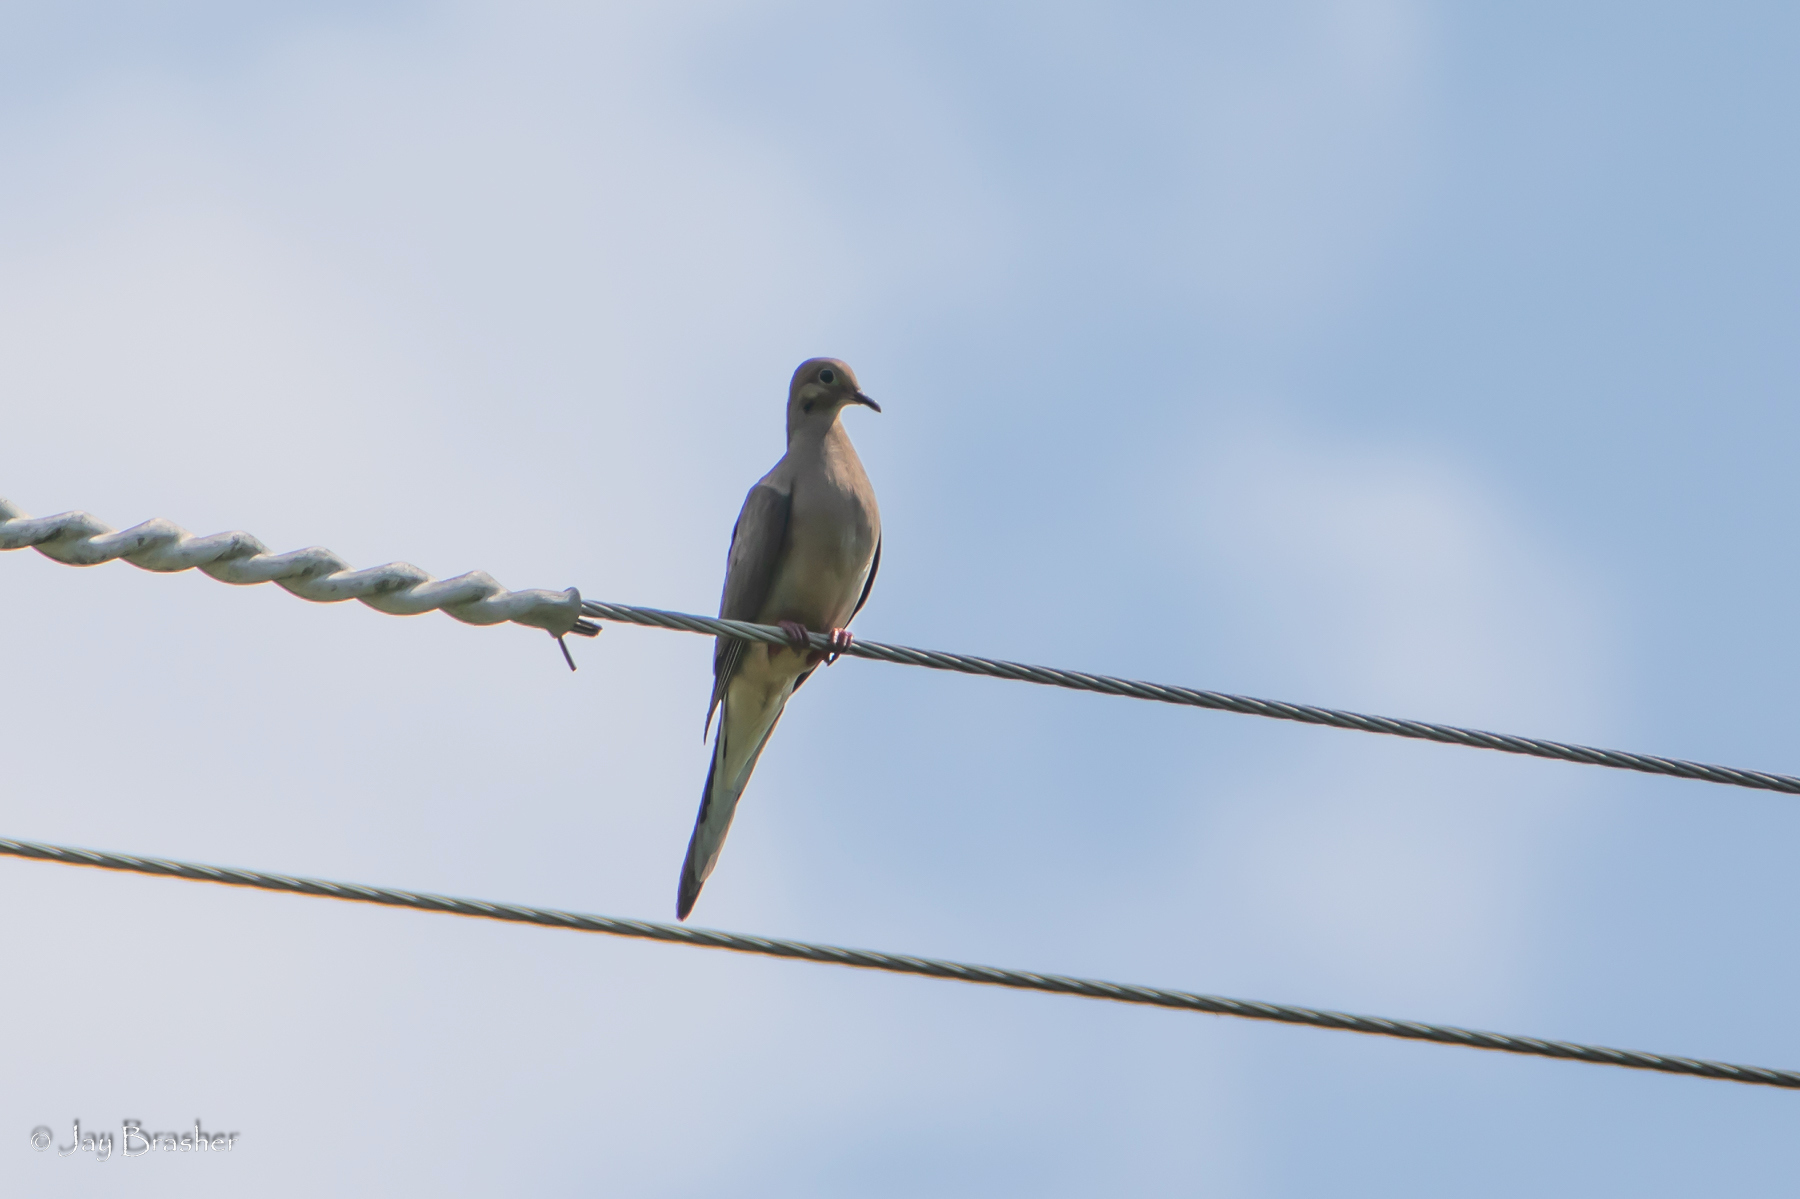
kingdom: Animalia
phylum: Chordata
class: Aves
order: Columbiformes
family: Columbidae
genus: Zenaida
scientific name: Zenaida macroura
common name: Mourning dove
